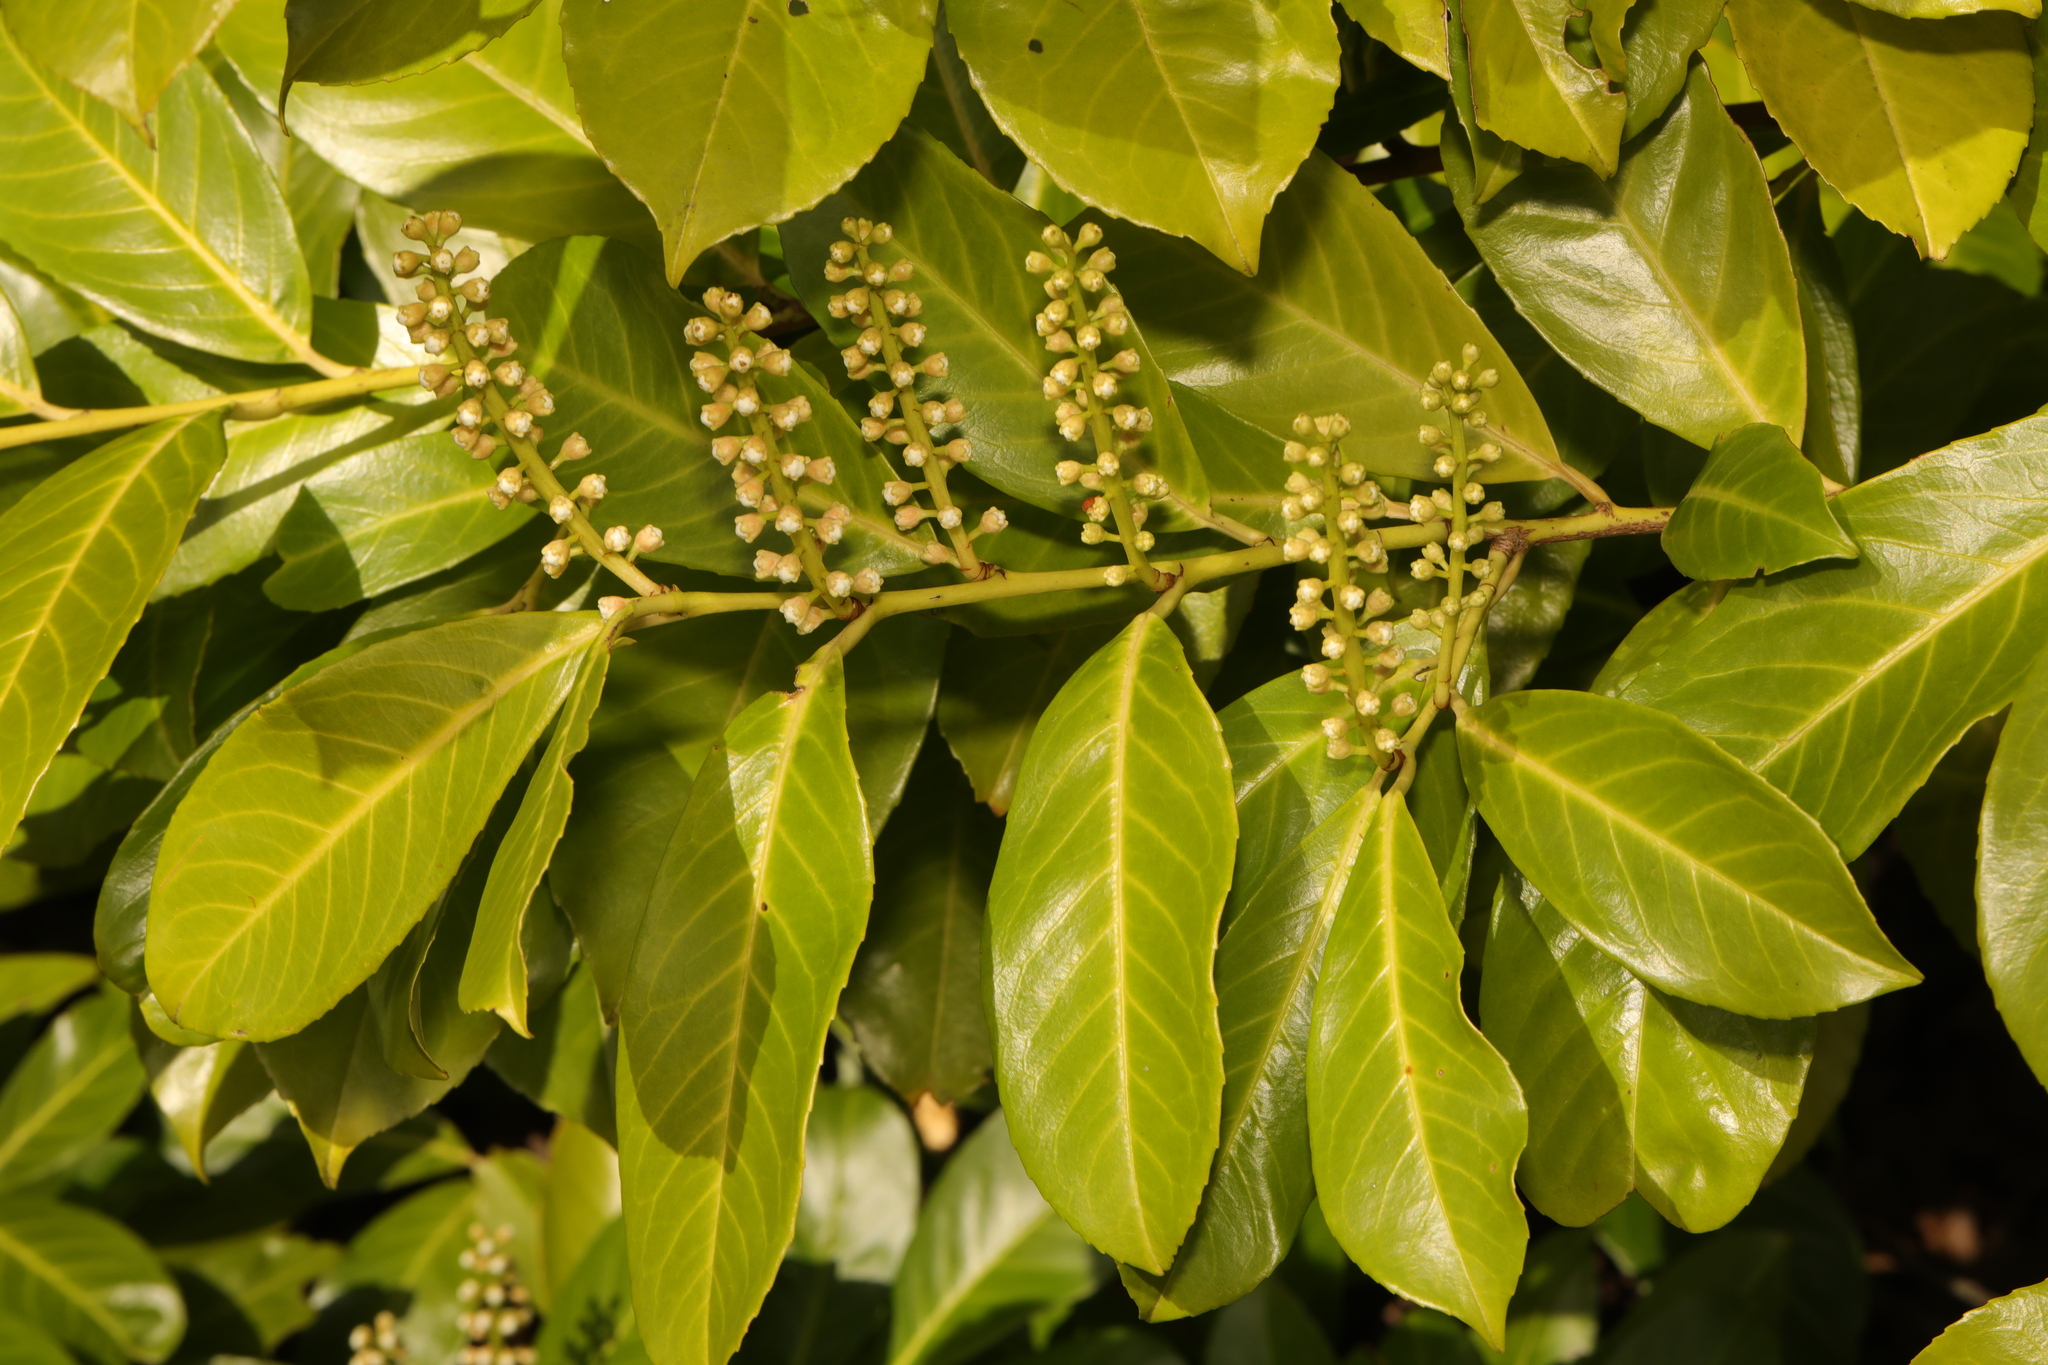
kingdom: Plantae
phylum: Tracheophyta
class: Magnoliopsida
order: Rosales
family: Rosaceae
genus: Prunus
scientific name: Prunus laurocerasus
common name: Cherry laurel
